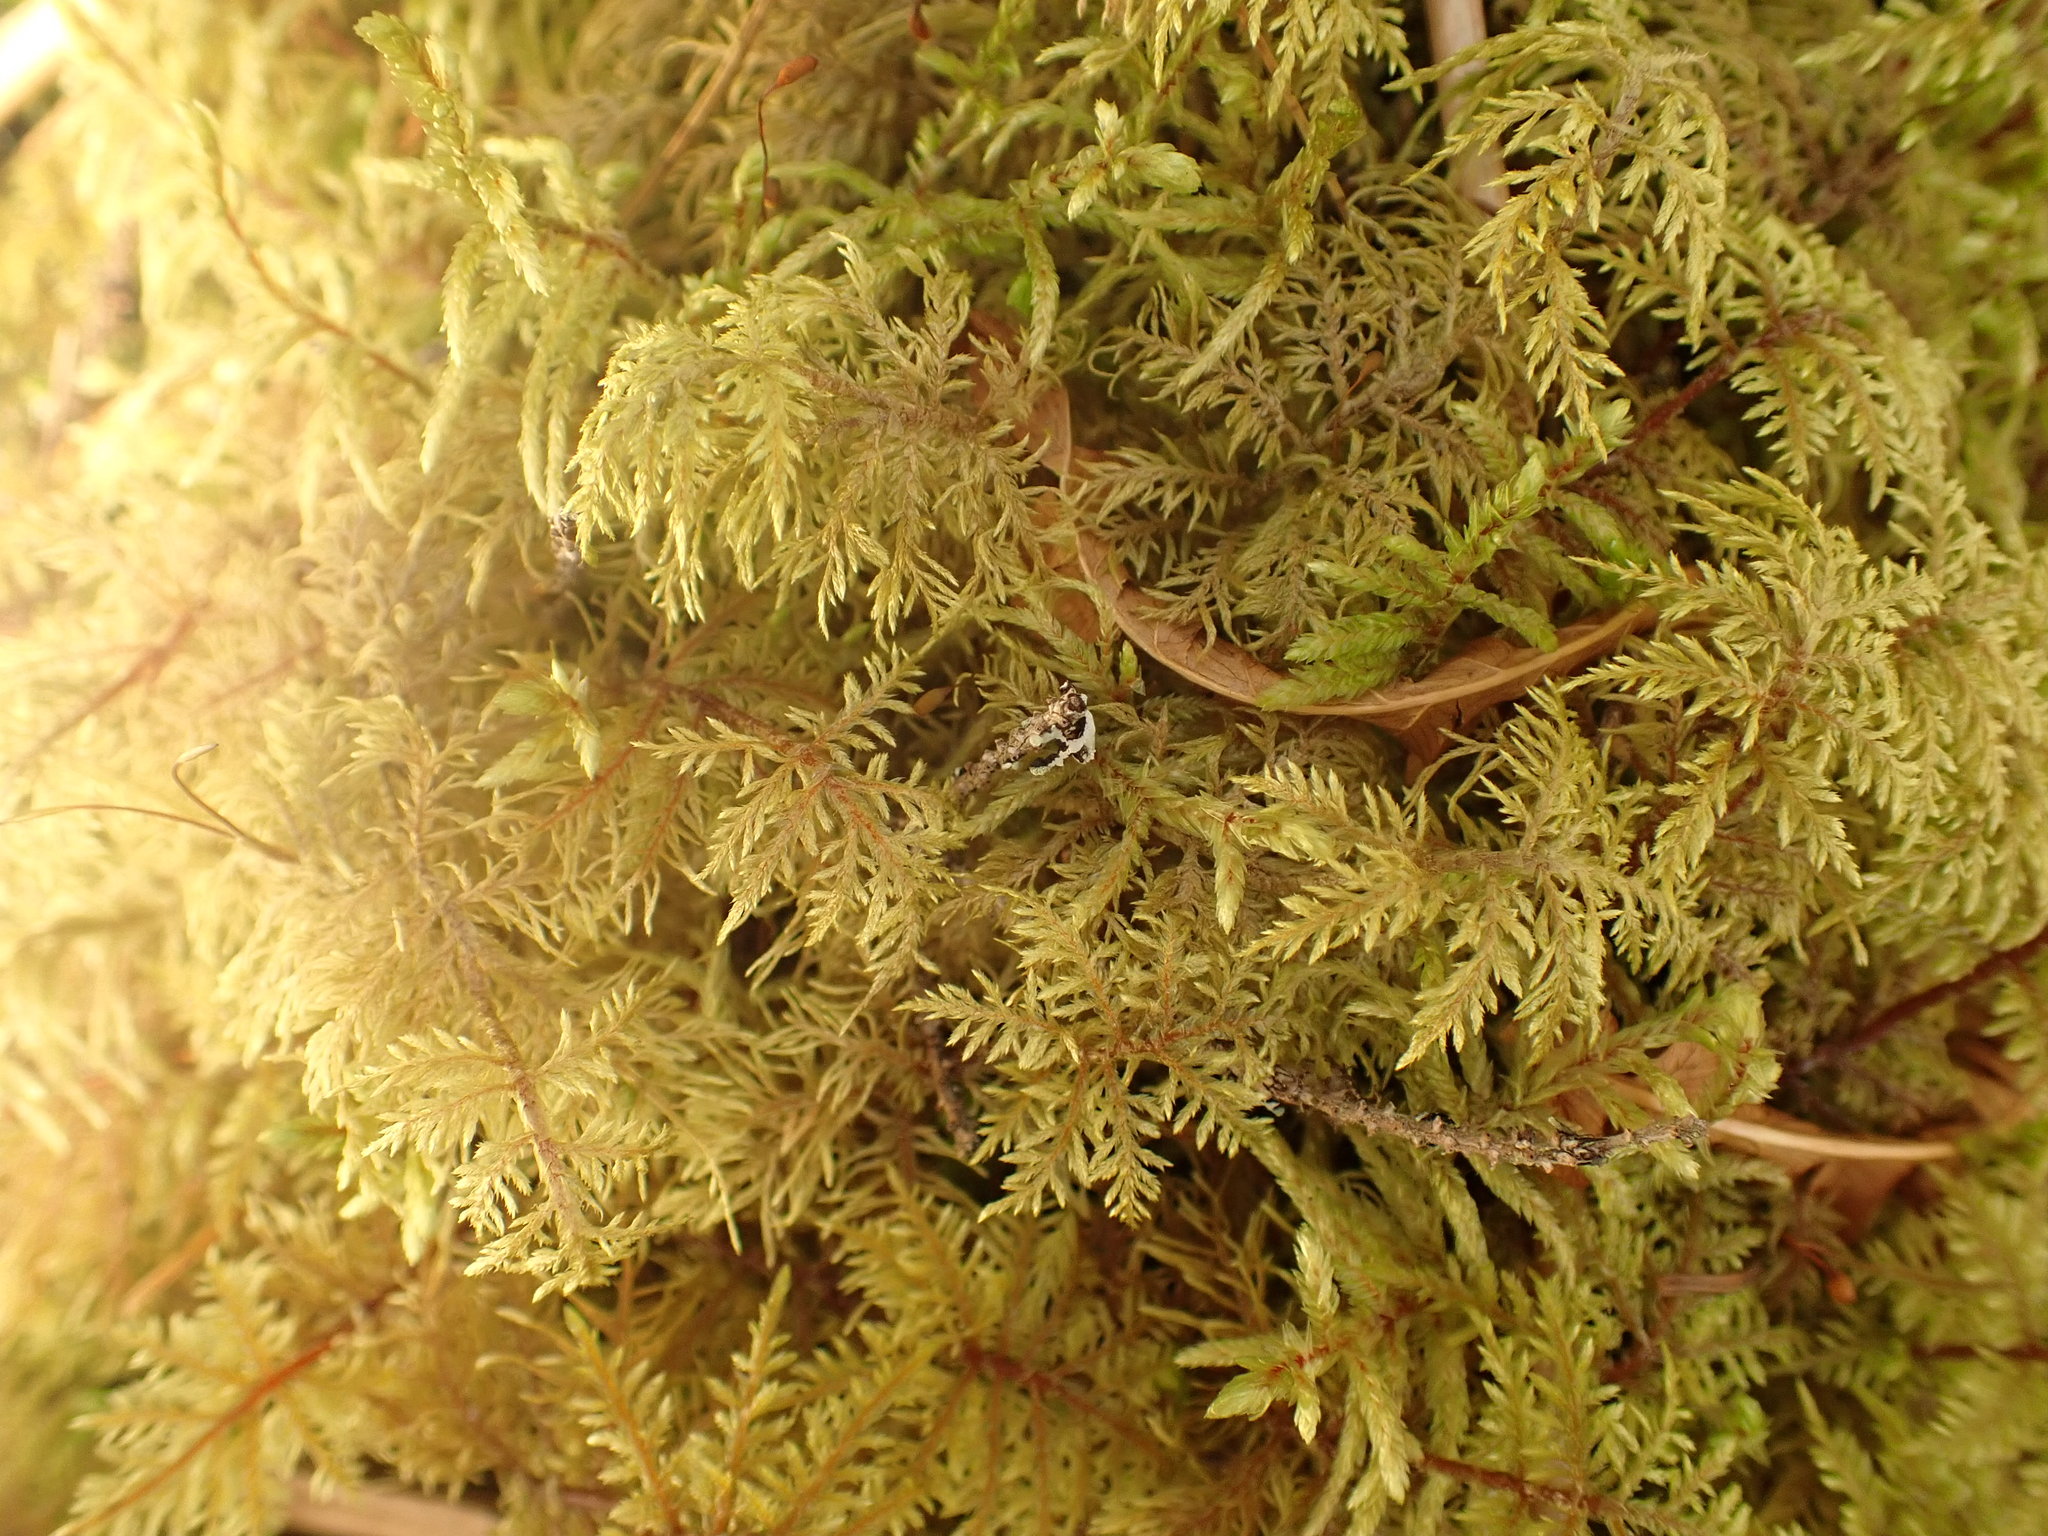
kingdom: Plantae
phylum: Bryophyta
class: Bryopsida
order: Hypnales
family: Hylocomiaceae
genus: Hylocomium
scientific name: Hylocomium splendens
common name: Stairstep moss
